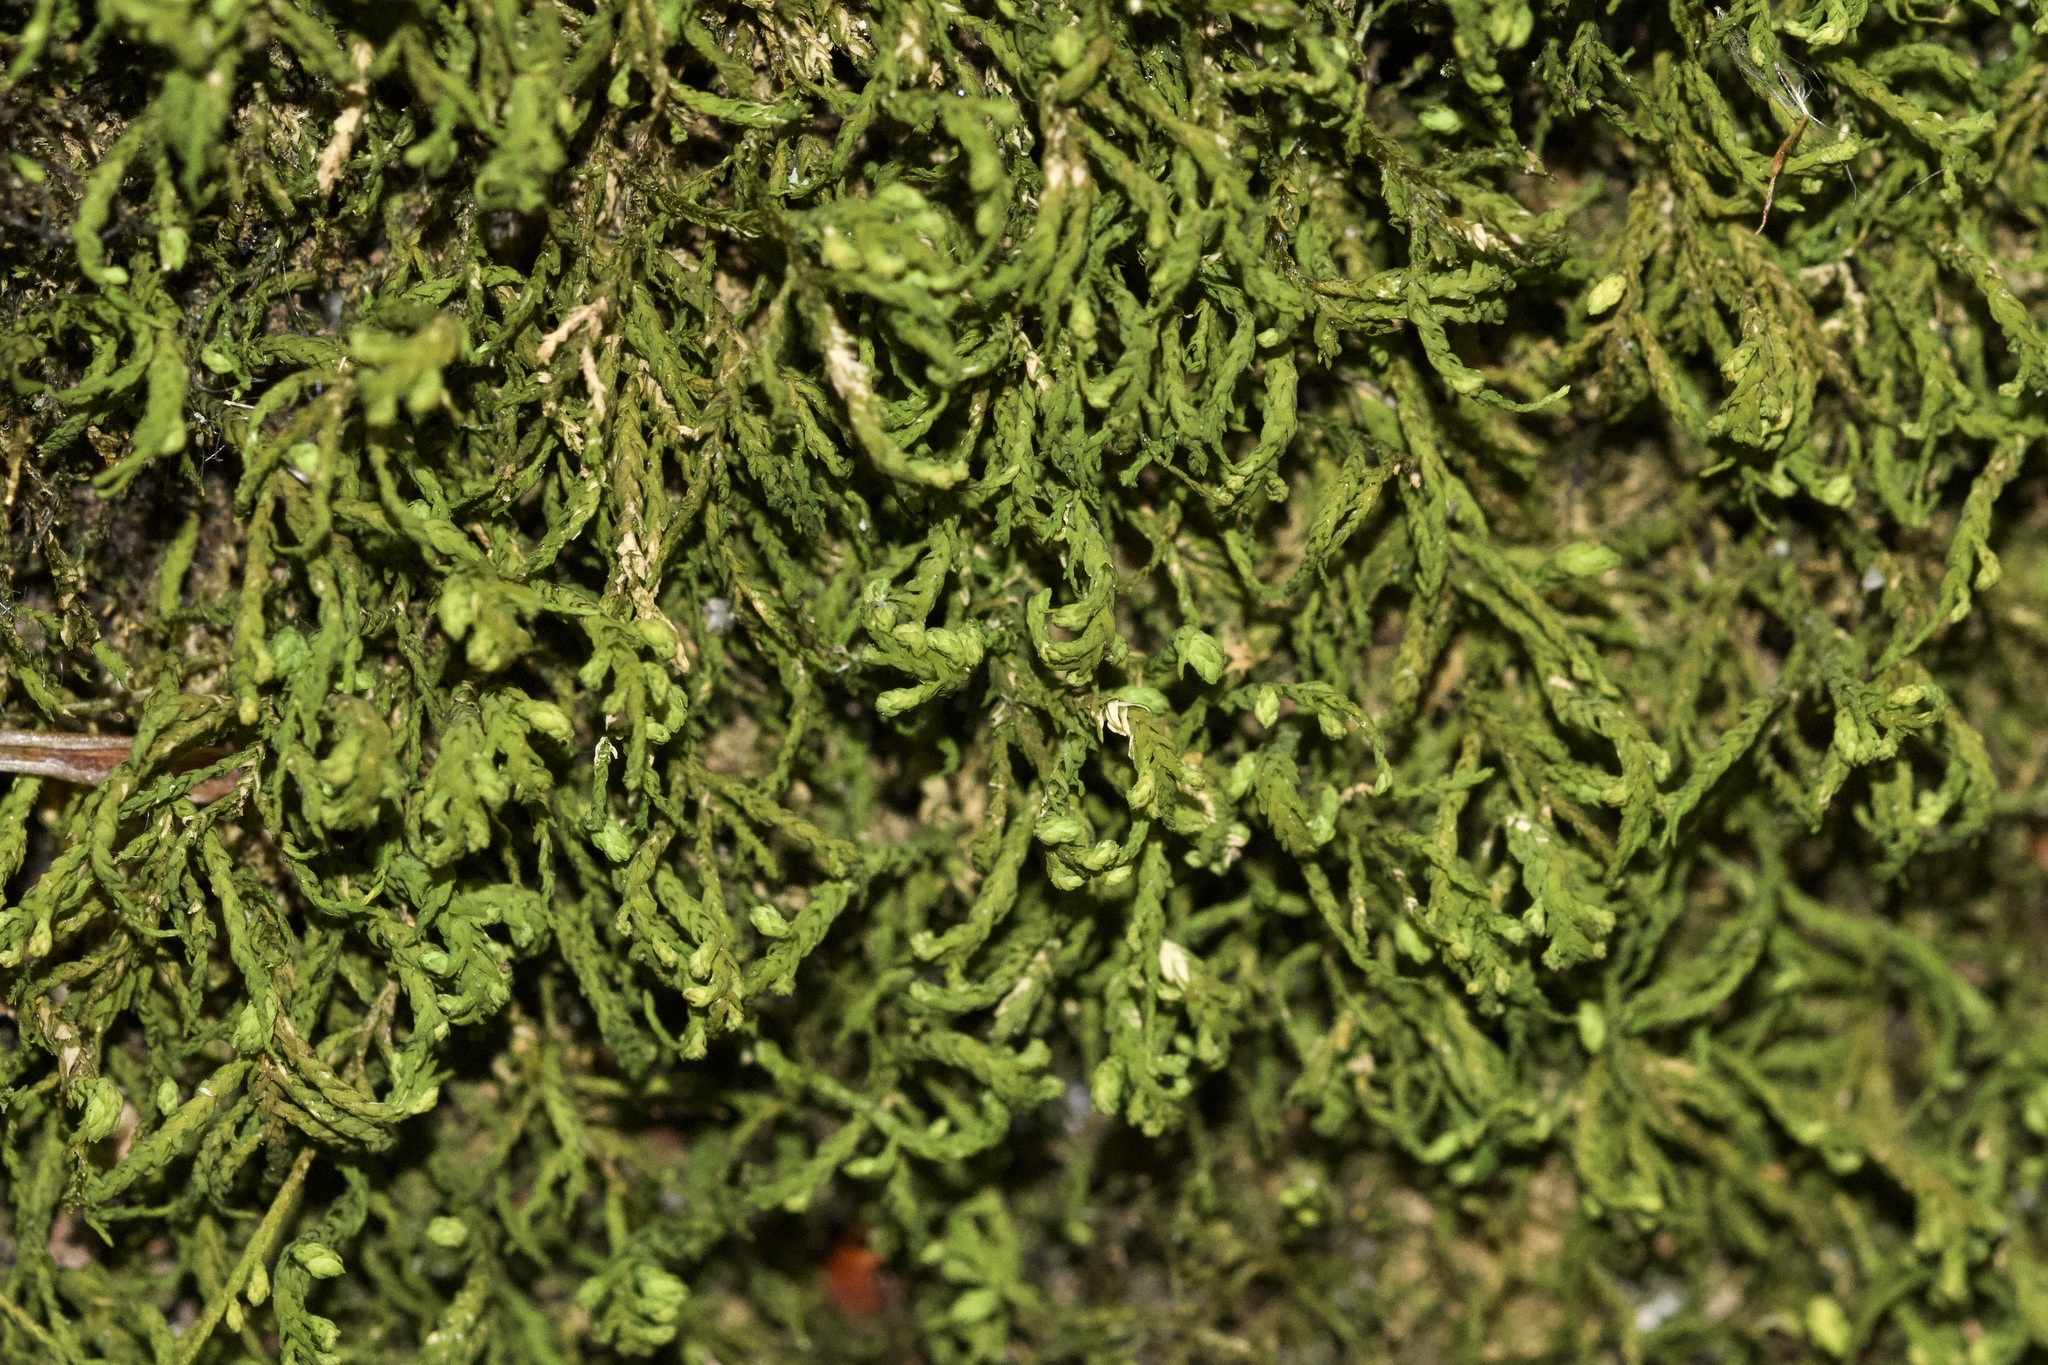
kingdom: Plantae
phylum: Bryophyta
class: Bryopsida
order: Hypnales
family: Neckeraceae
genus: Pseudanomodon
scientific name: Pseudanomodon attenuatus
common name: Tree-skirt moss
